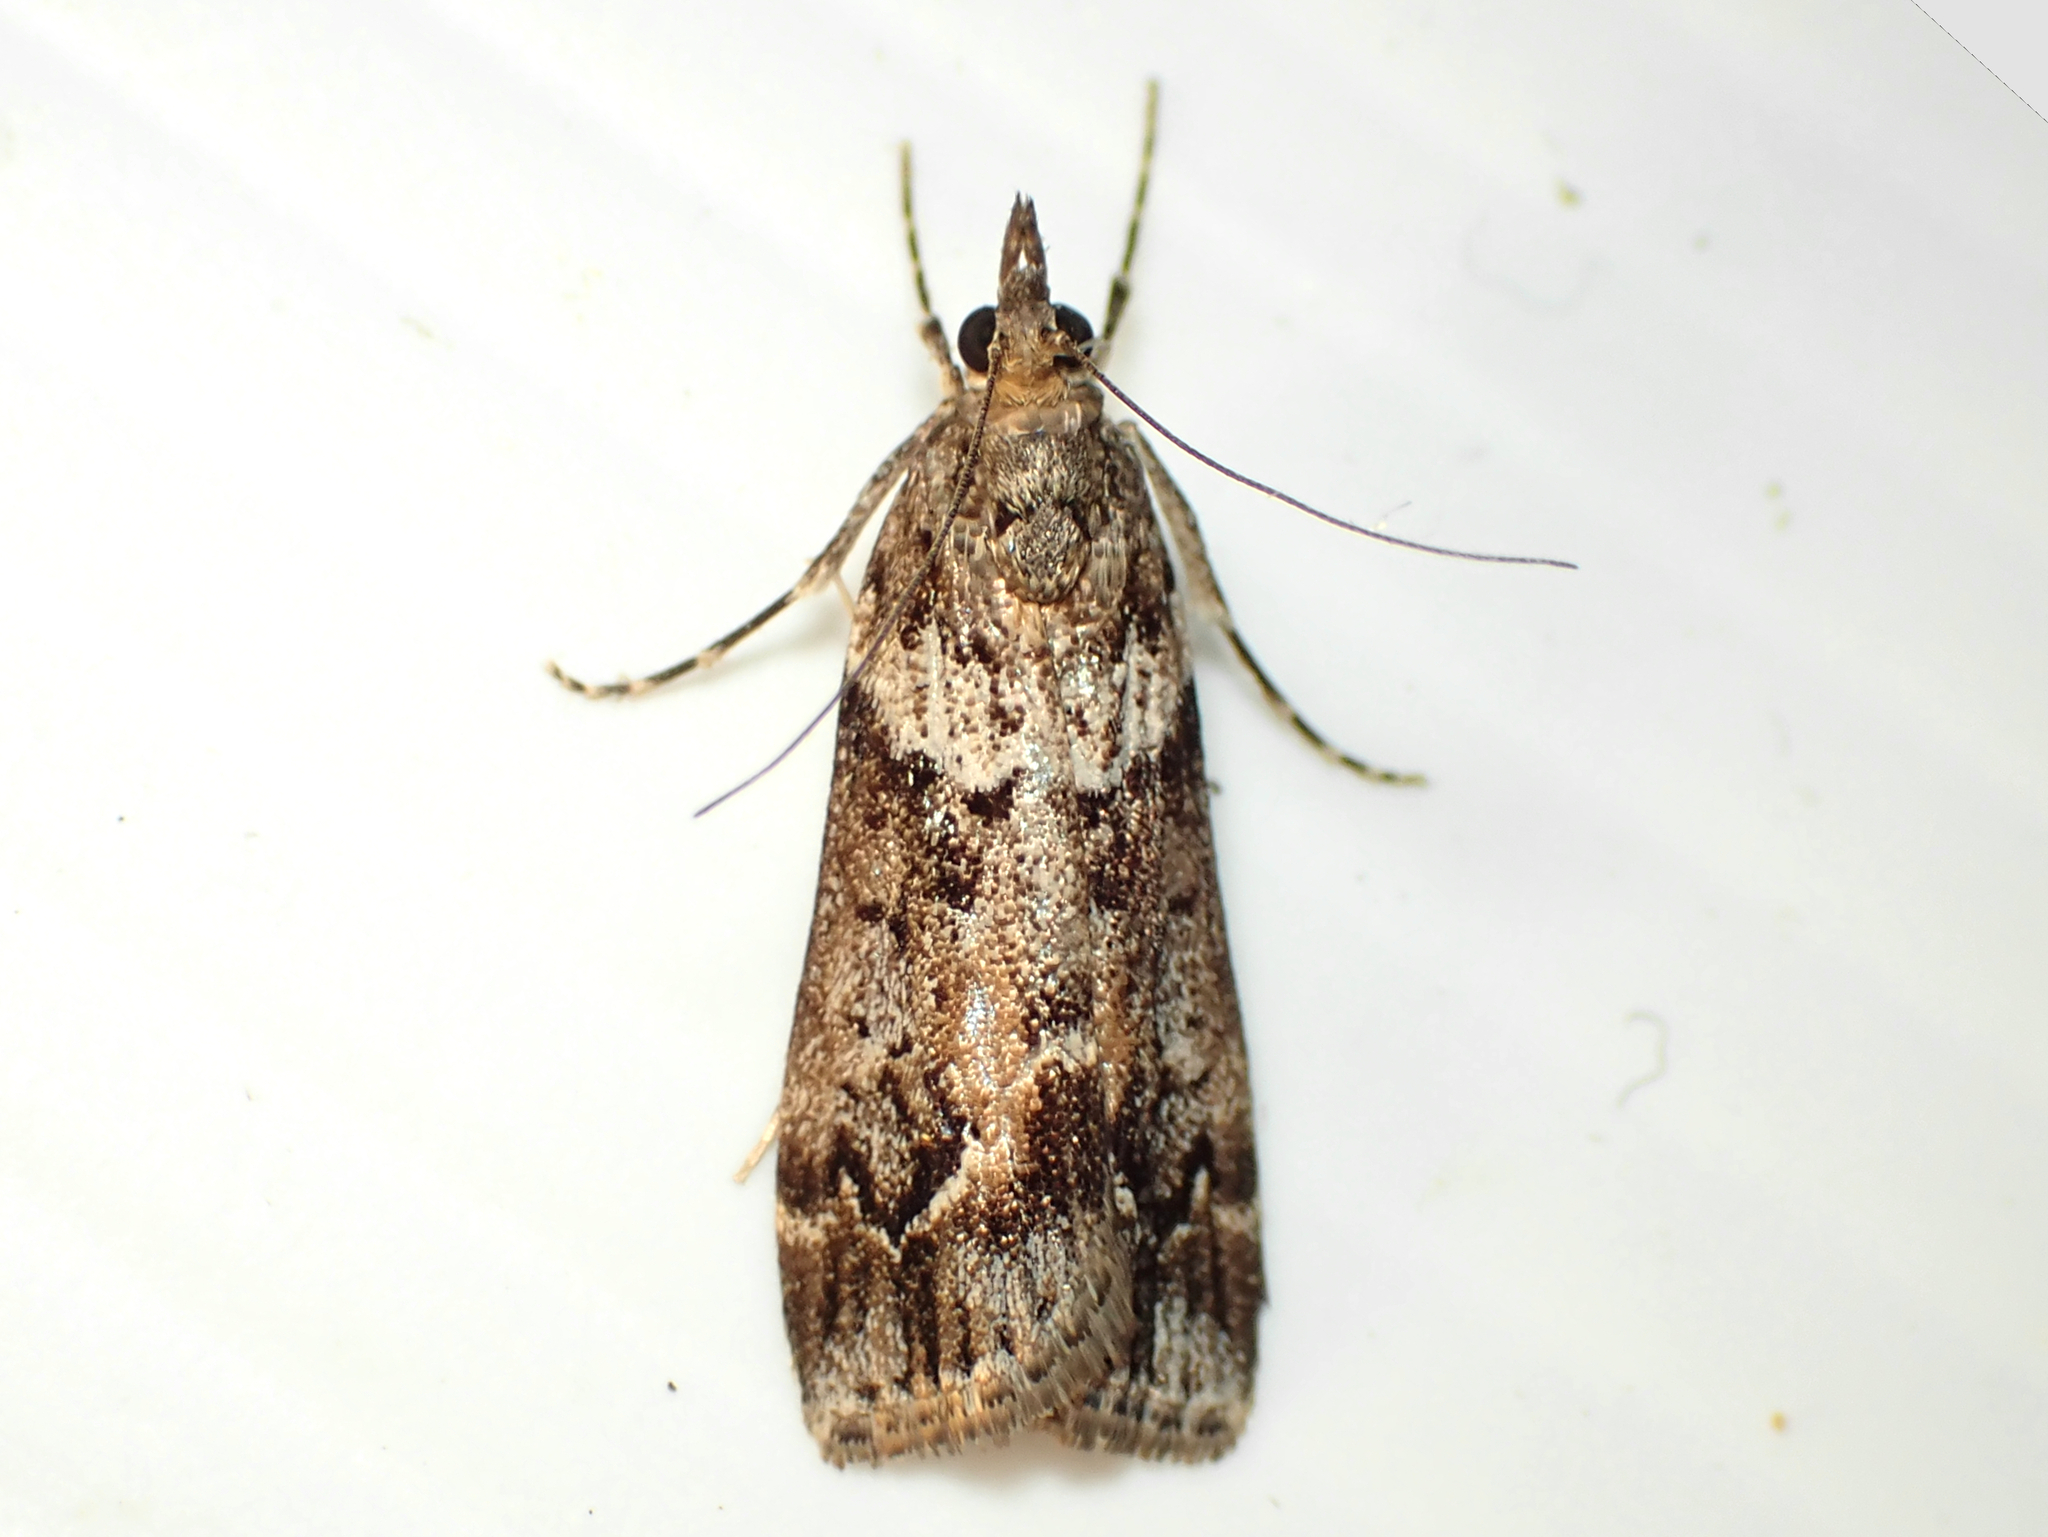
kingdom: Animalia
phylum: Arthropoda
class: Insecta
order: Lepidoptera
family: Crambidae
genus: Eudonia
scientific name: Eudonia submarginalis
